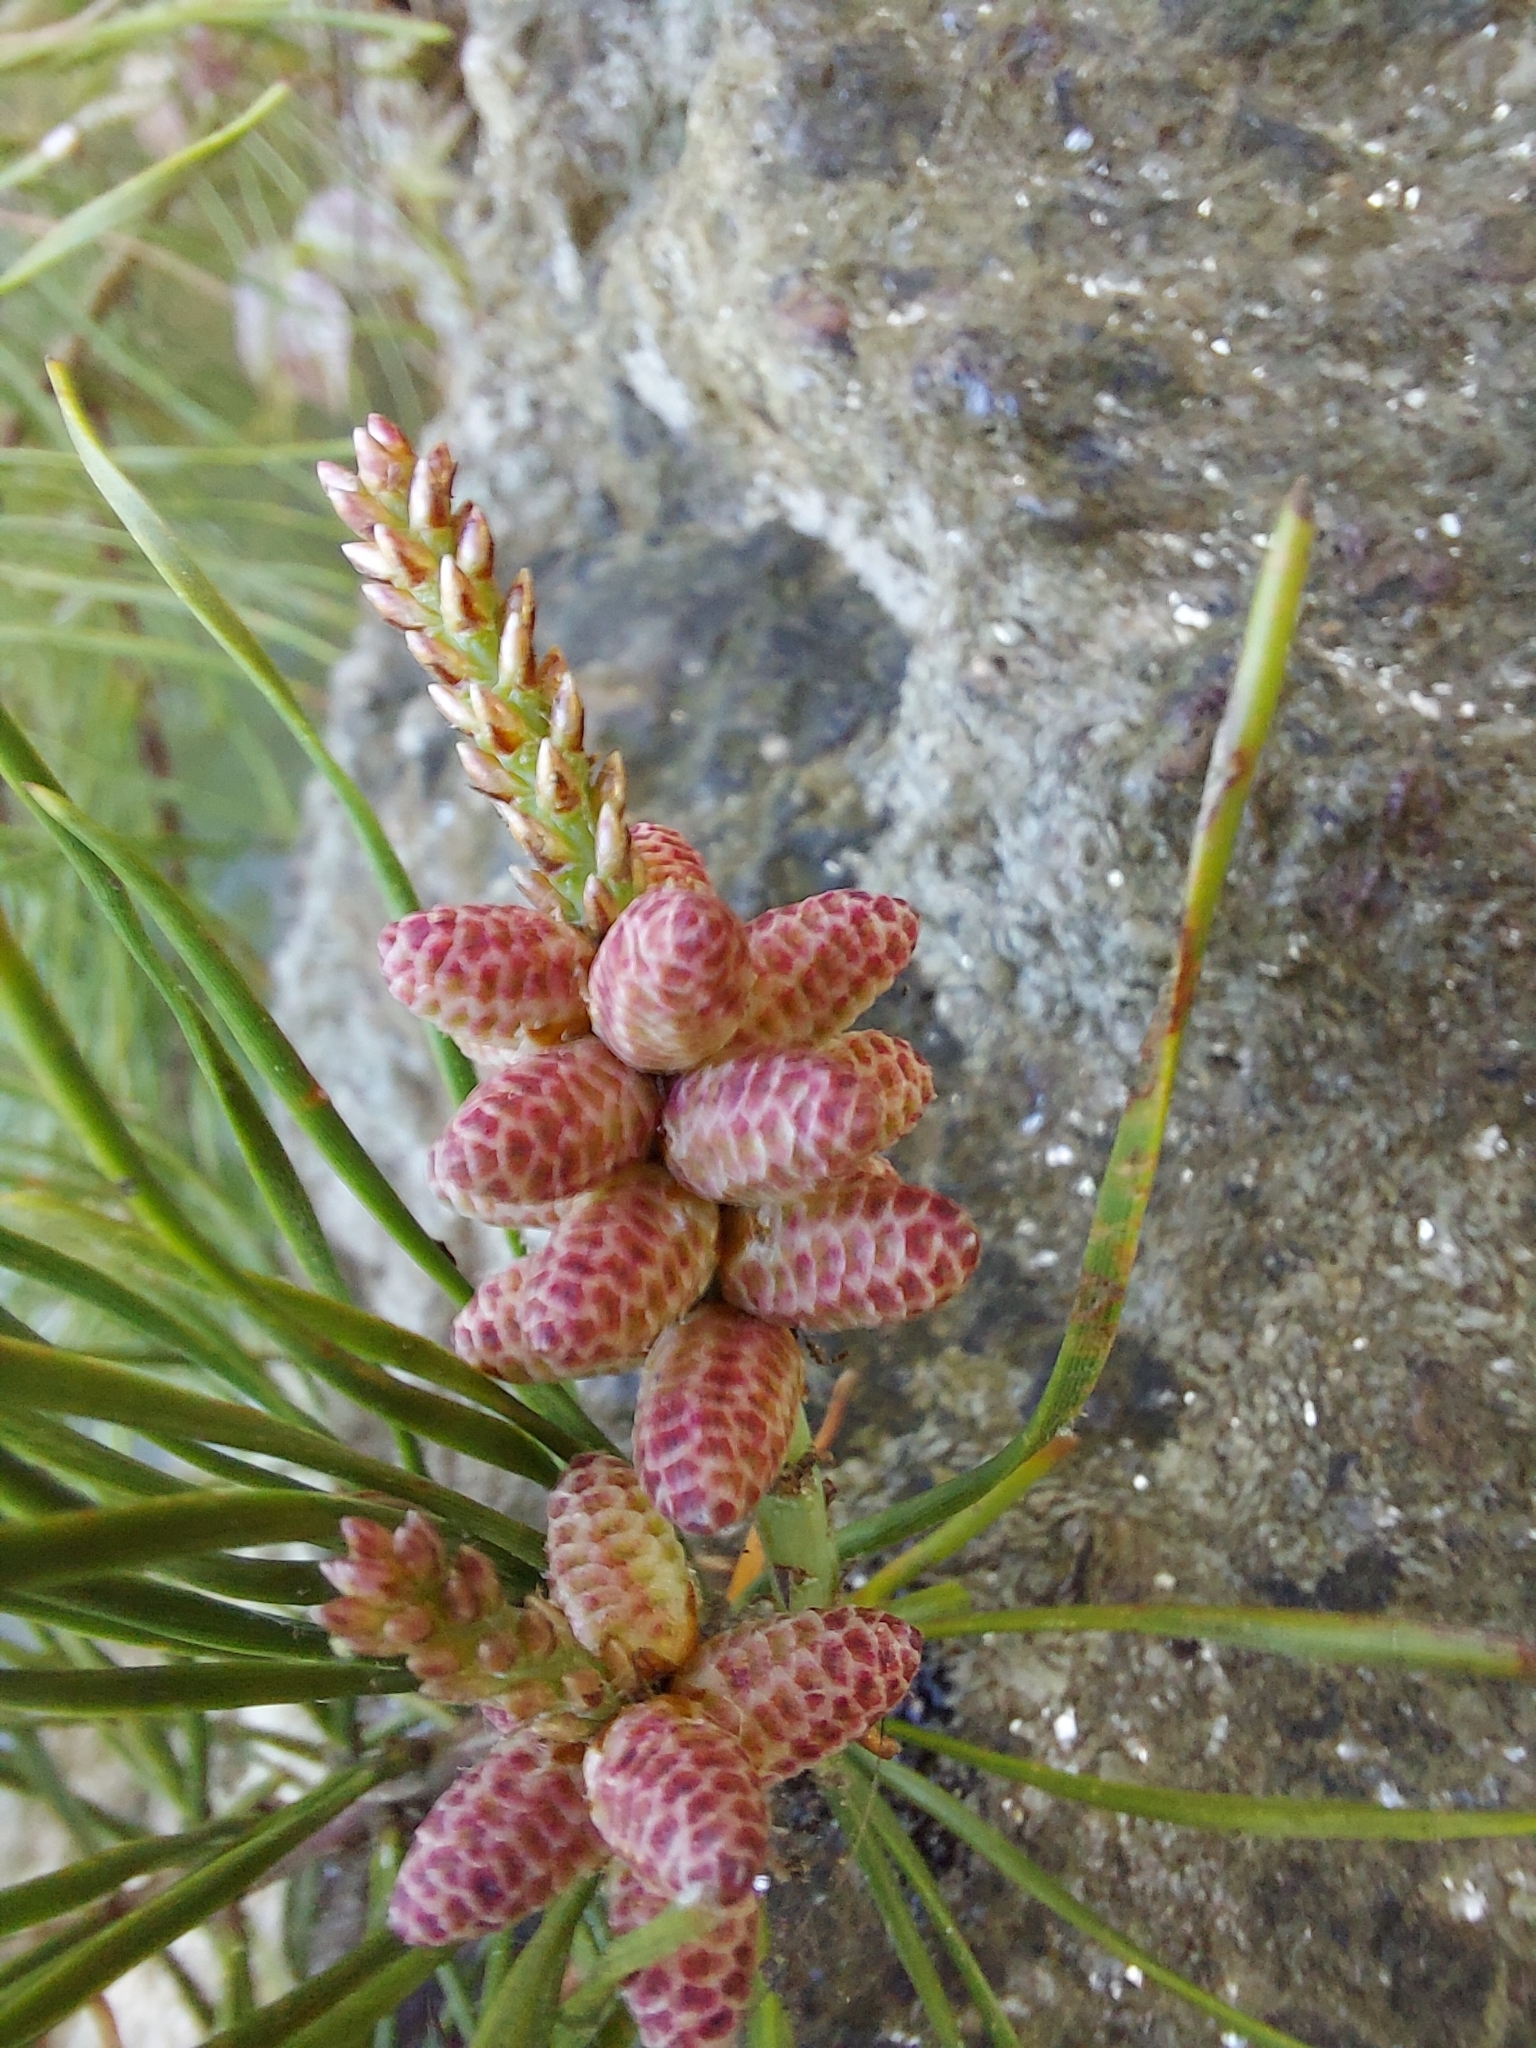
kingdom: Plantae
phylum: Tracheophyta
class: Pinopsida
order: Pinales
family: Pinaceae
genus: Pinus
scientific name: Pinus virginiana
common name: Scrub pine
